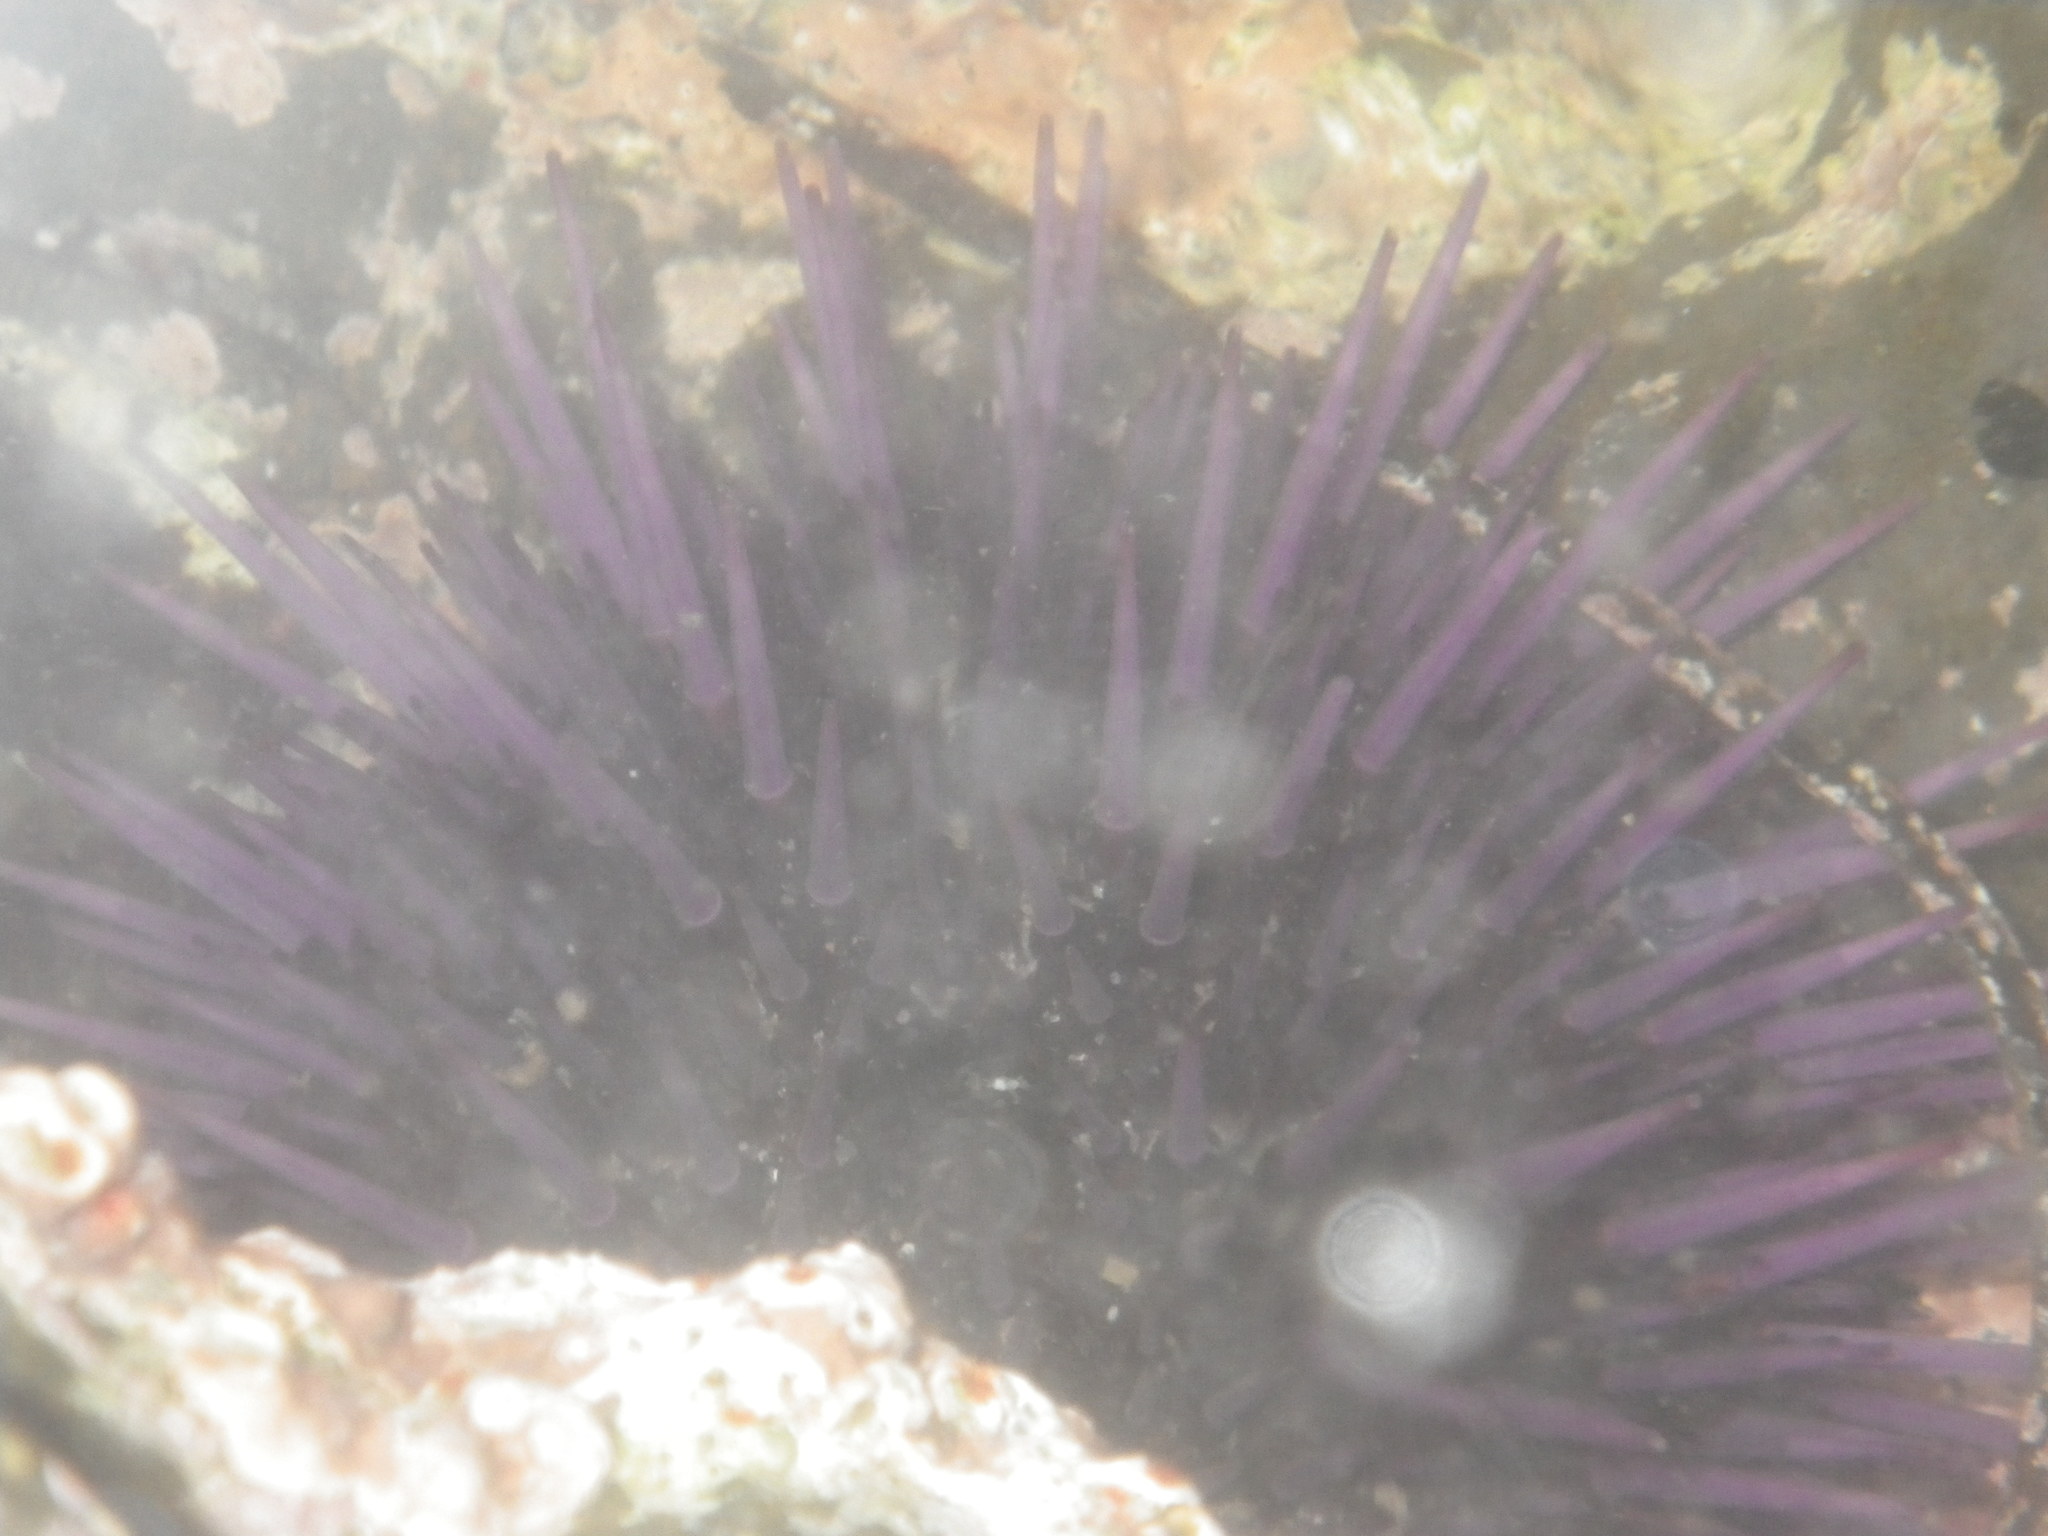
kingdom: Animalia
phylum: Echinodermata
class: Echinoidea
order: Camarodonta
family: Strongylocentrotidae
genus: Strongylocentrotus
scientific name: Strongylocentrotus purpuratus
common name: Purple sea urchin
